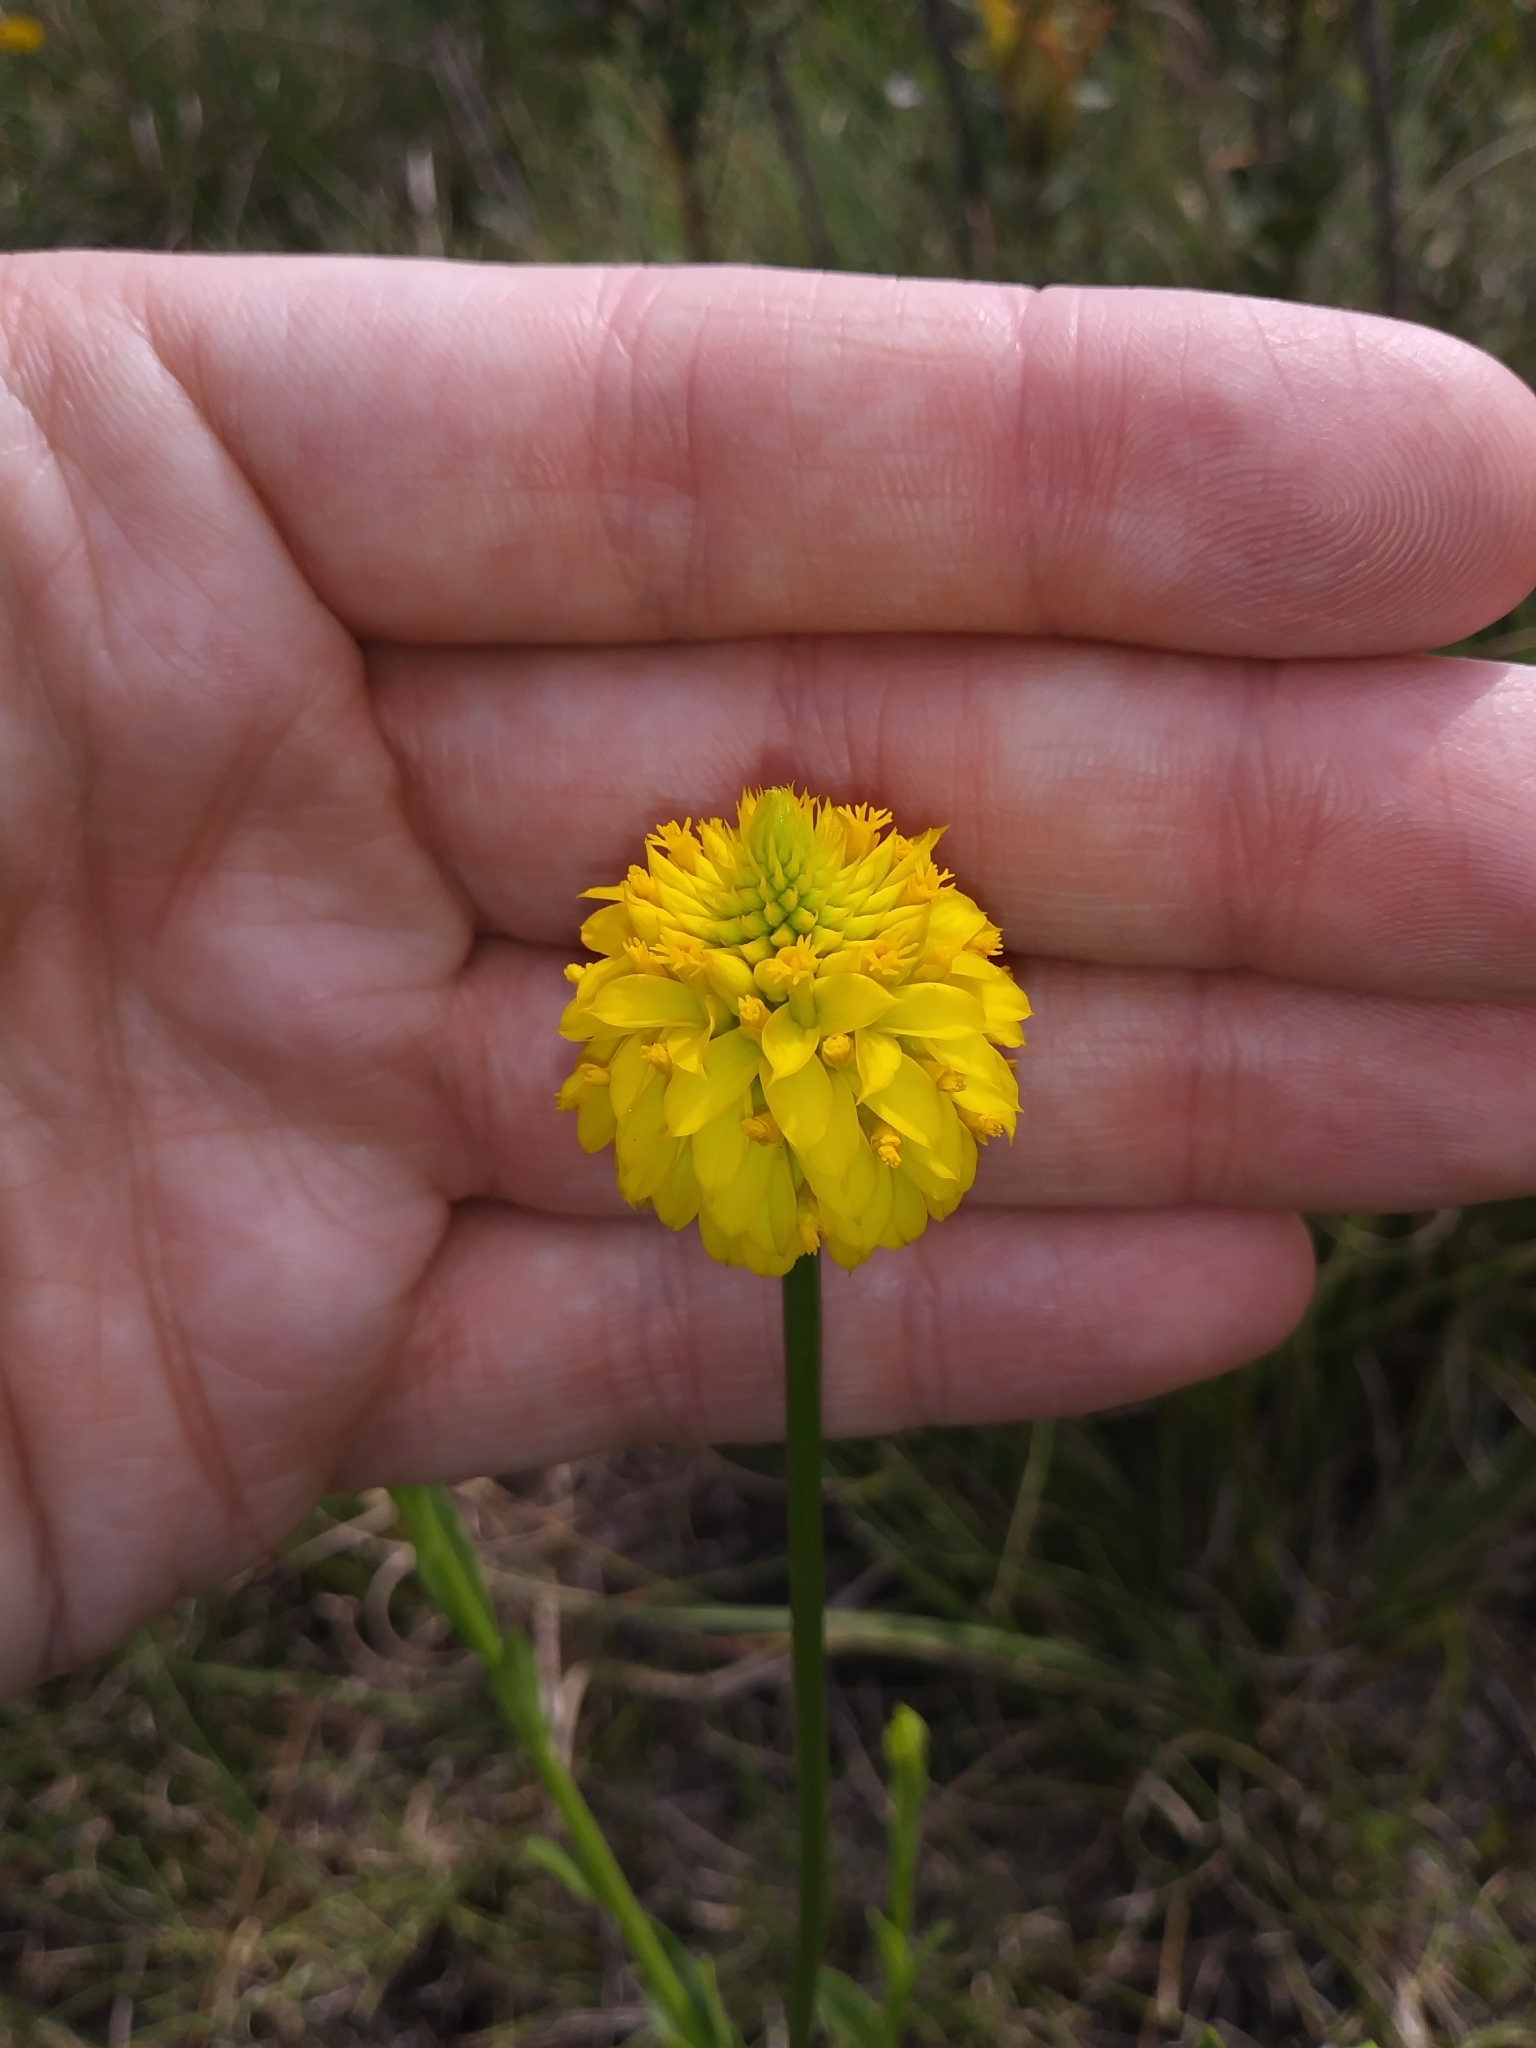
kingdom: Plantae
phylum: Tracheophyta
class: Magnoliopsida
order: Fabales
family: Polygalaceae
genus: Polygala
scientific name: Polygala rugelii
